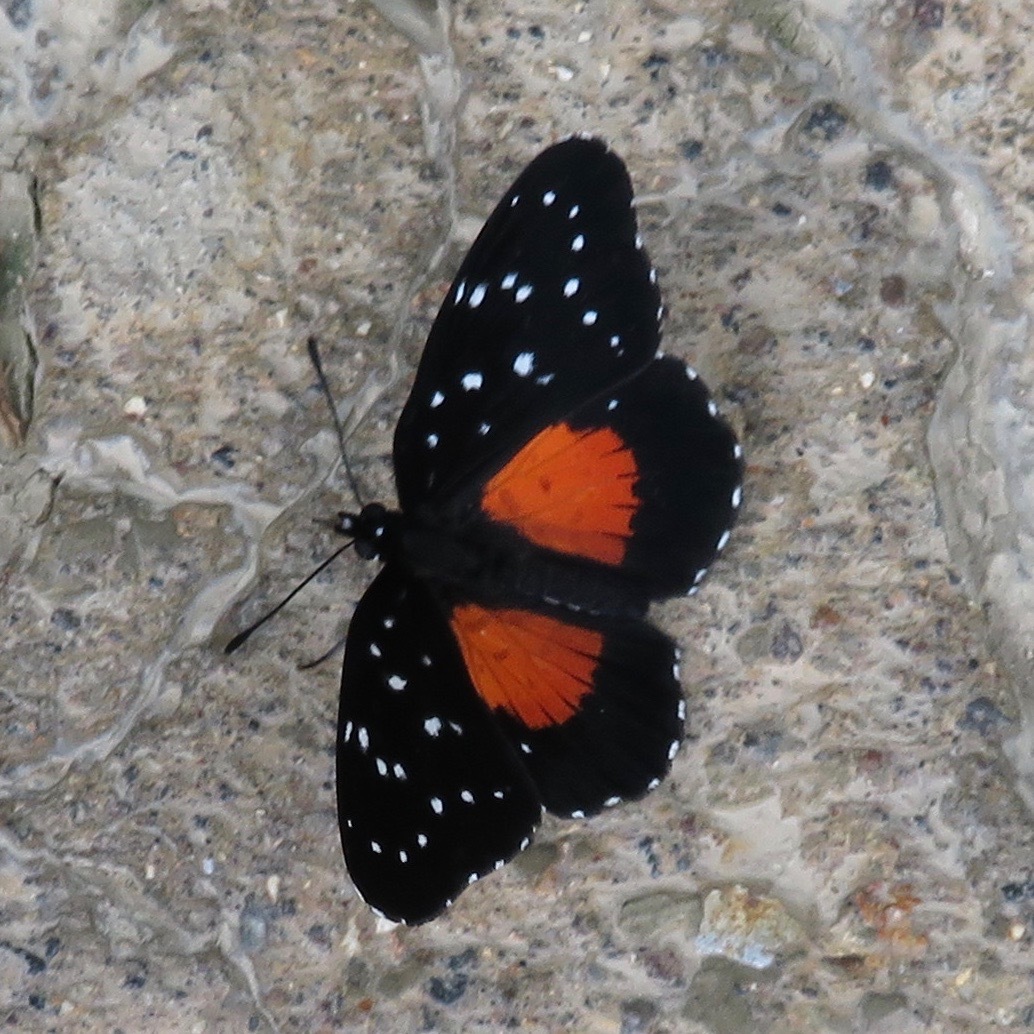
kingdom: Animalia
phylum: Arthropoda
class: Insecta
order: Lepidoptera
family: Nymphalidae
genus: Chlosyne
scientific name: Chlosyne janais
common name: Crimson patch
